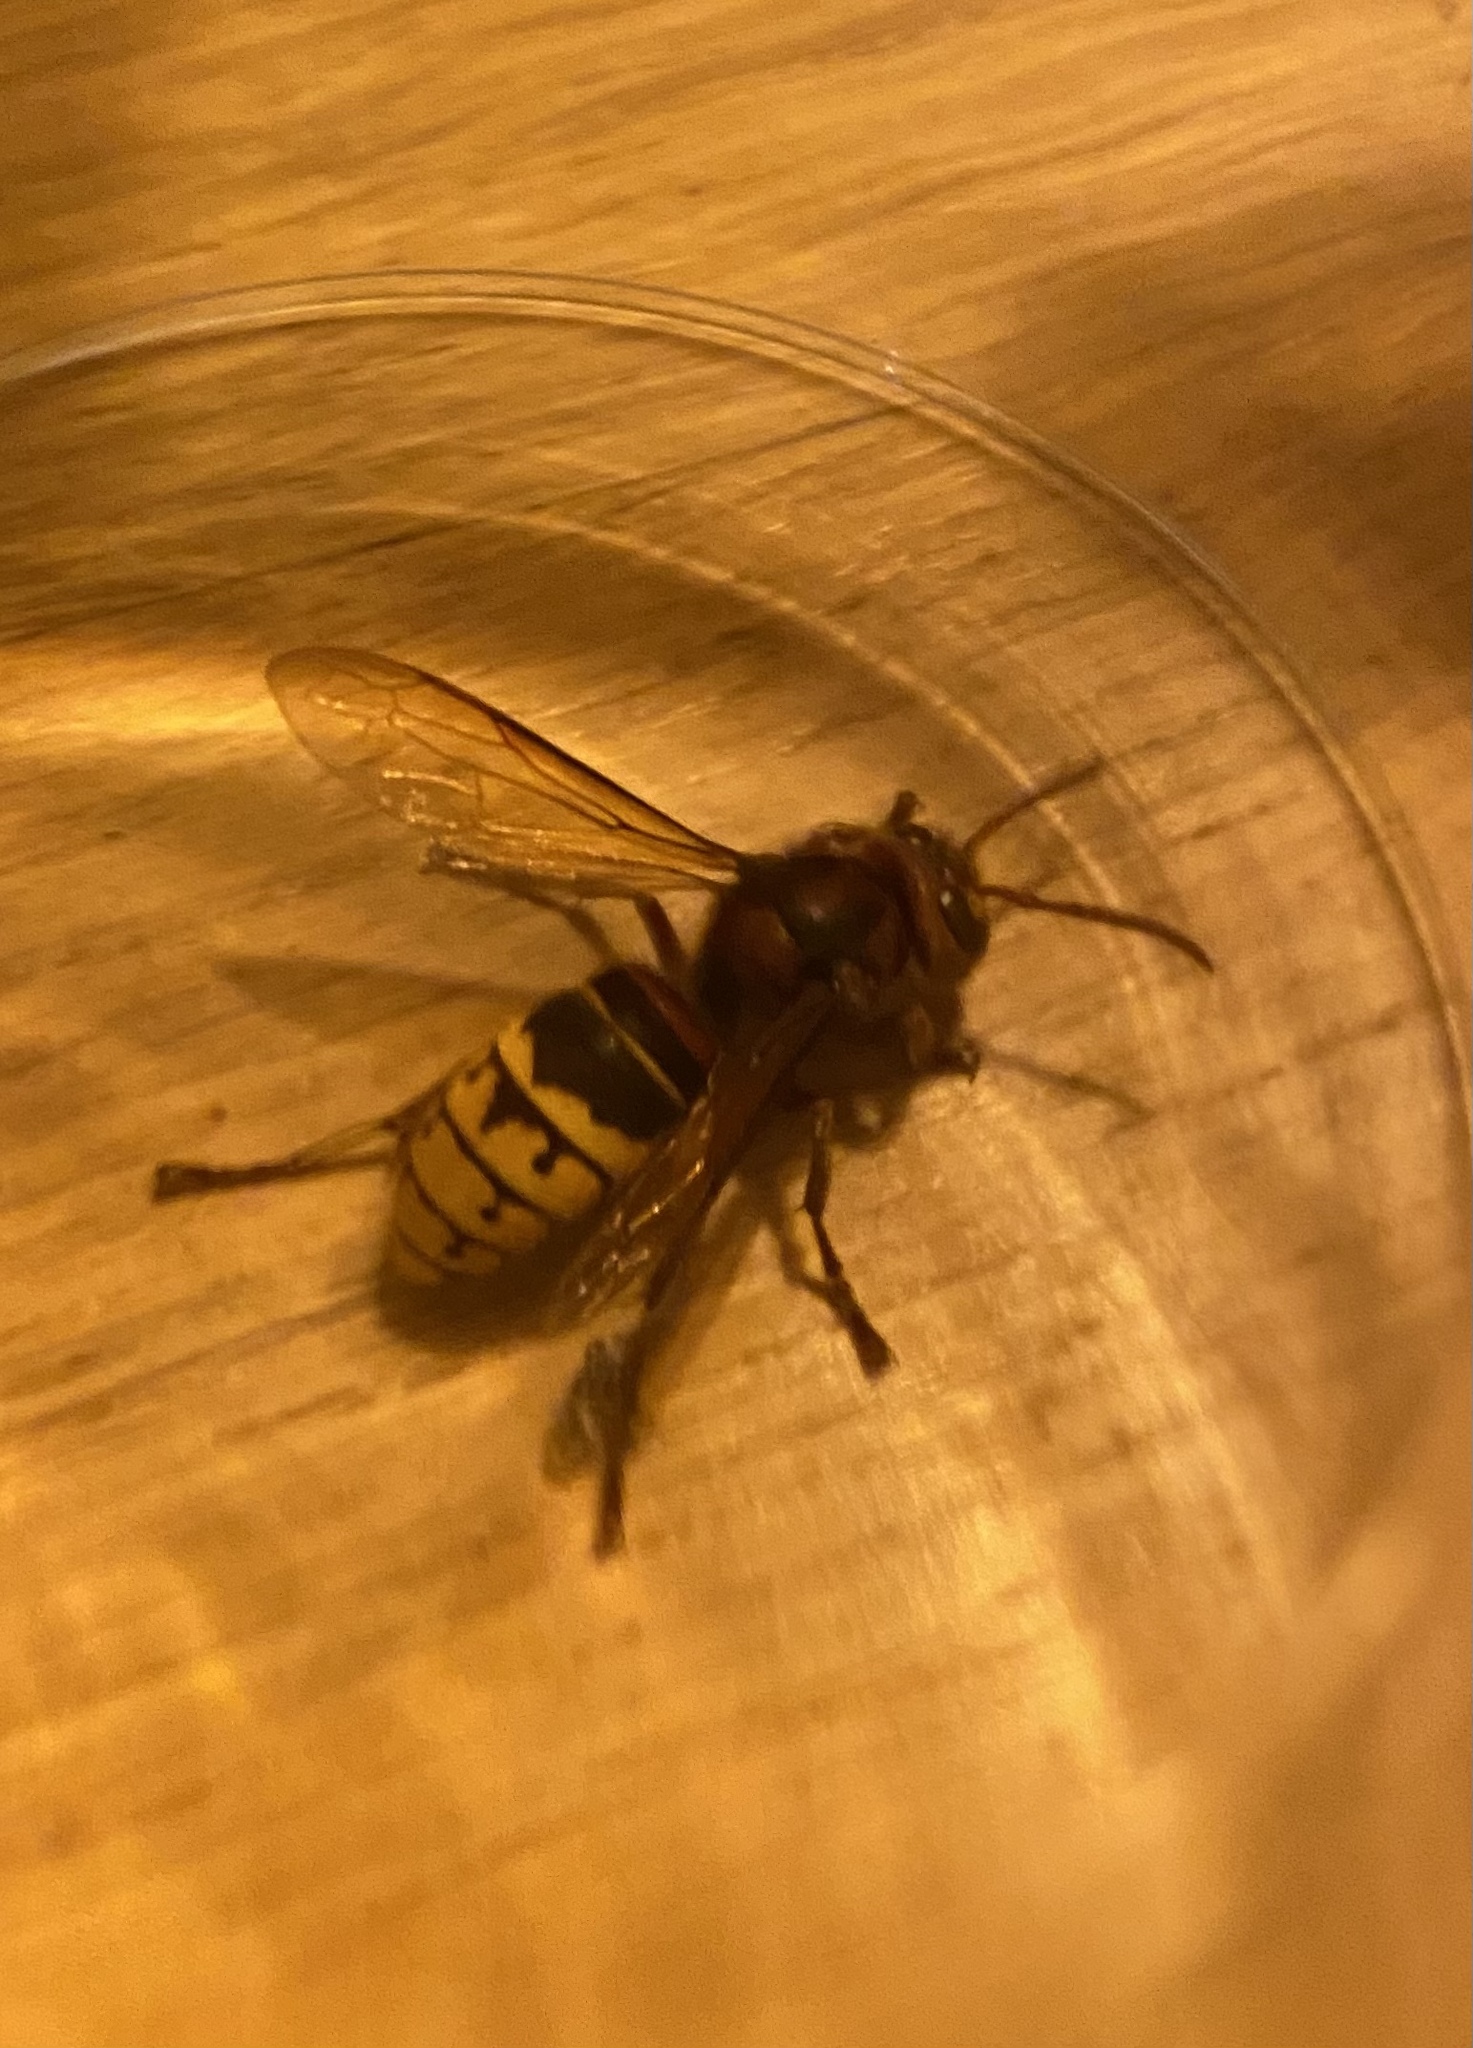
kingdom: Animalia
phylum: Arthropoda
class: Insecta
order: Hymenoptera
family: Vespidae
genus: Vespa
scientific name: Vespa crabro
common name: Hornet
